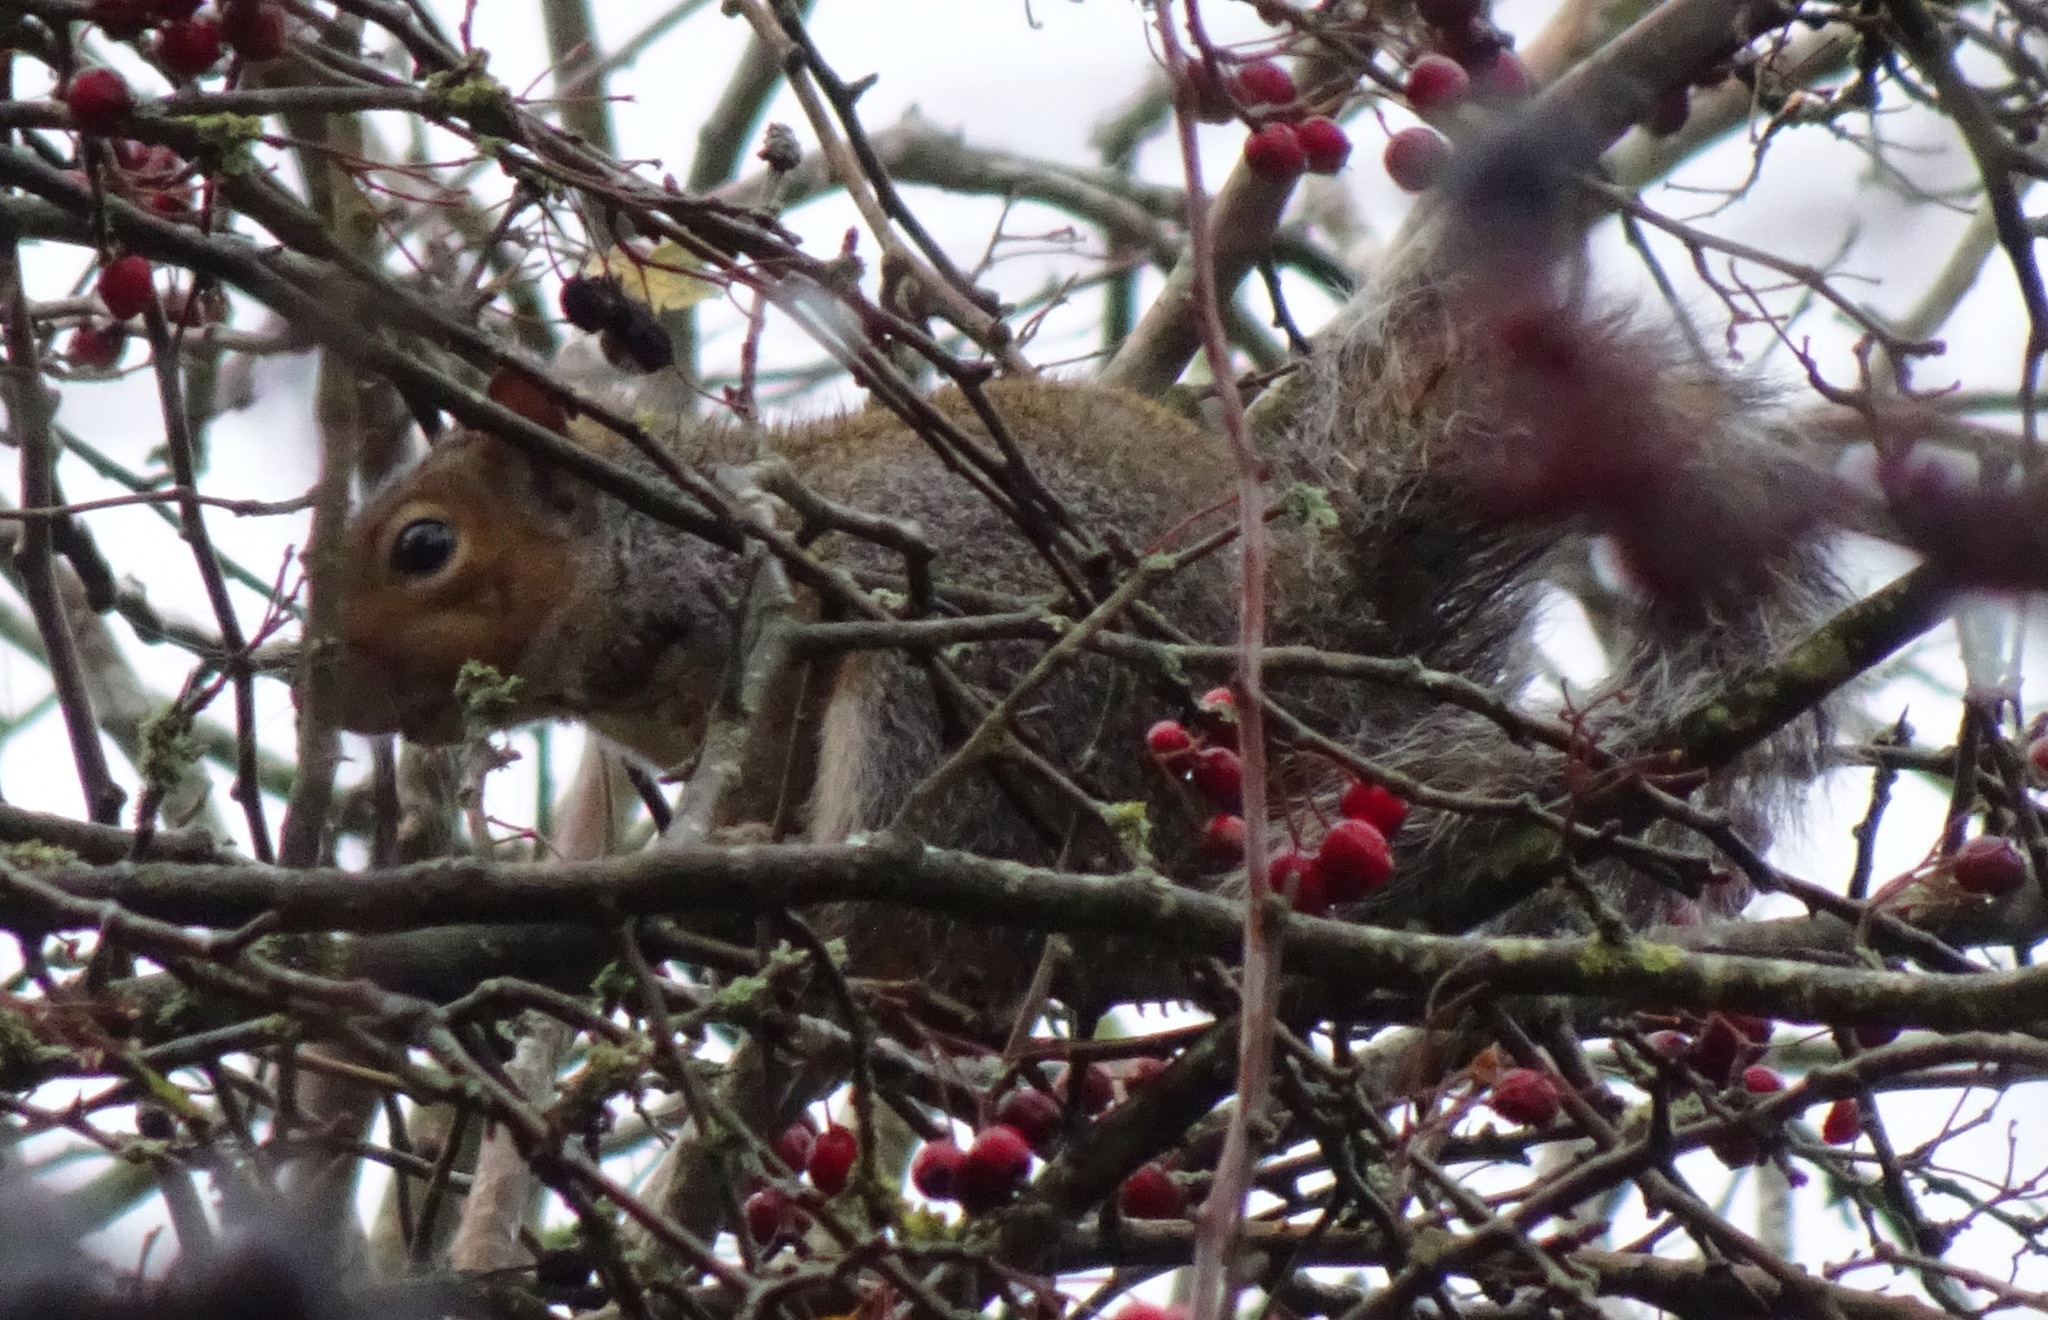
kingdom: Animalia
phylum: Chordata
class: Mammalia
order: Rodentia
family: Sciuridae
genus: Sciurus
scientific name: Sciurus carolinensis
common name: Eastern gray squirrel
